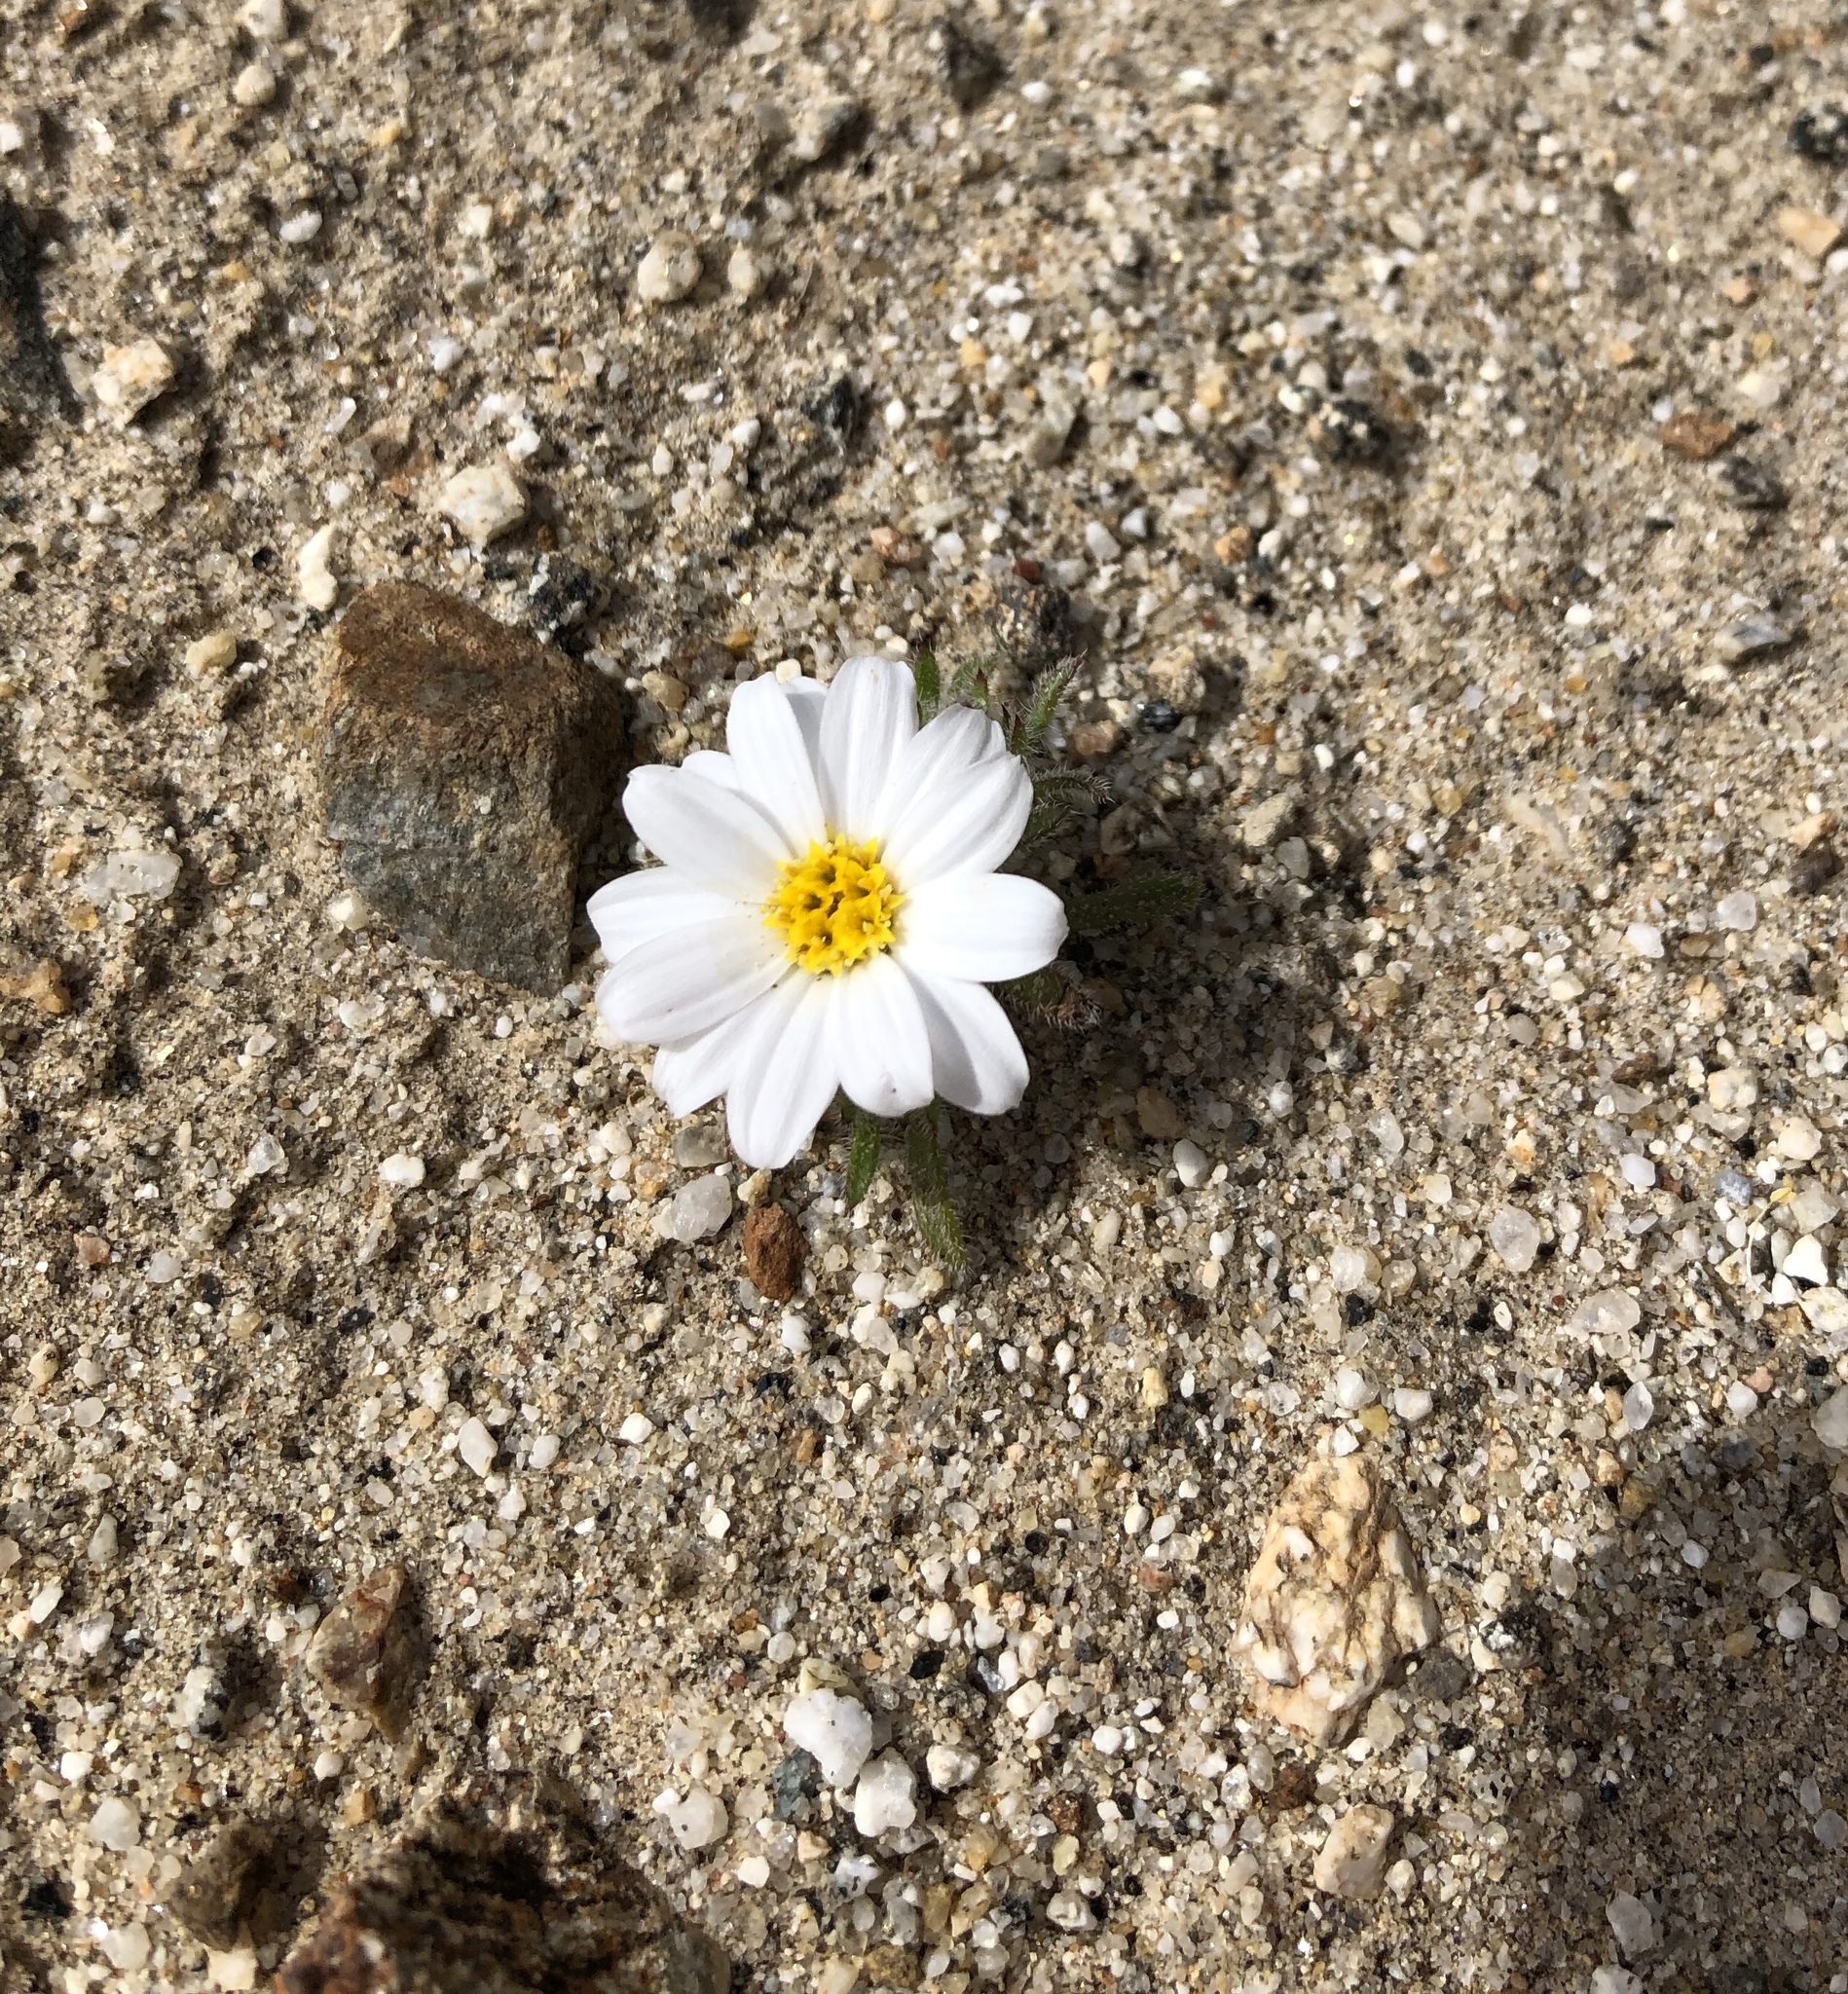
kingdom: Plantae
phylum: Tracheophyta
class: Magnoliopsida
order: Asterales
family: Asteraceae
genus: Monoptilon
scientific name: Monoptilon bellioides
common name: Bristly desertstar
